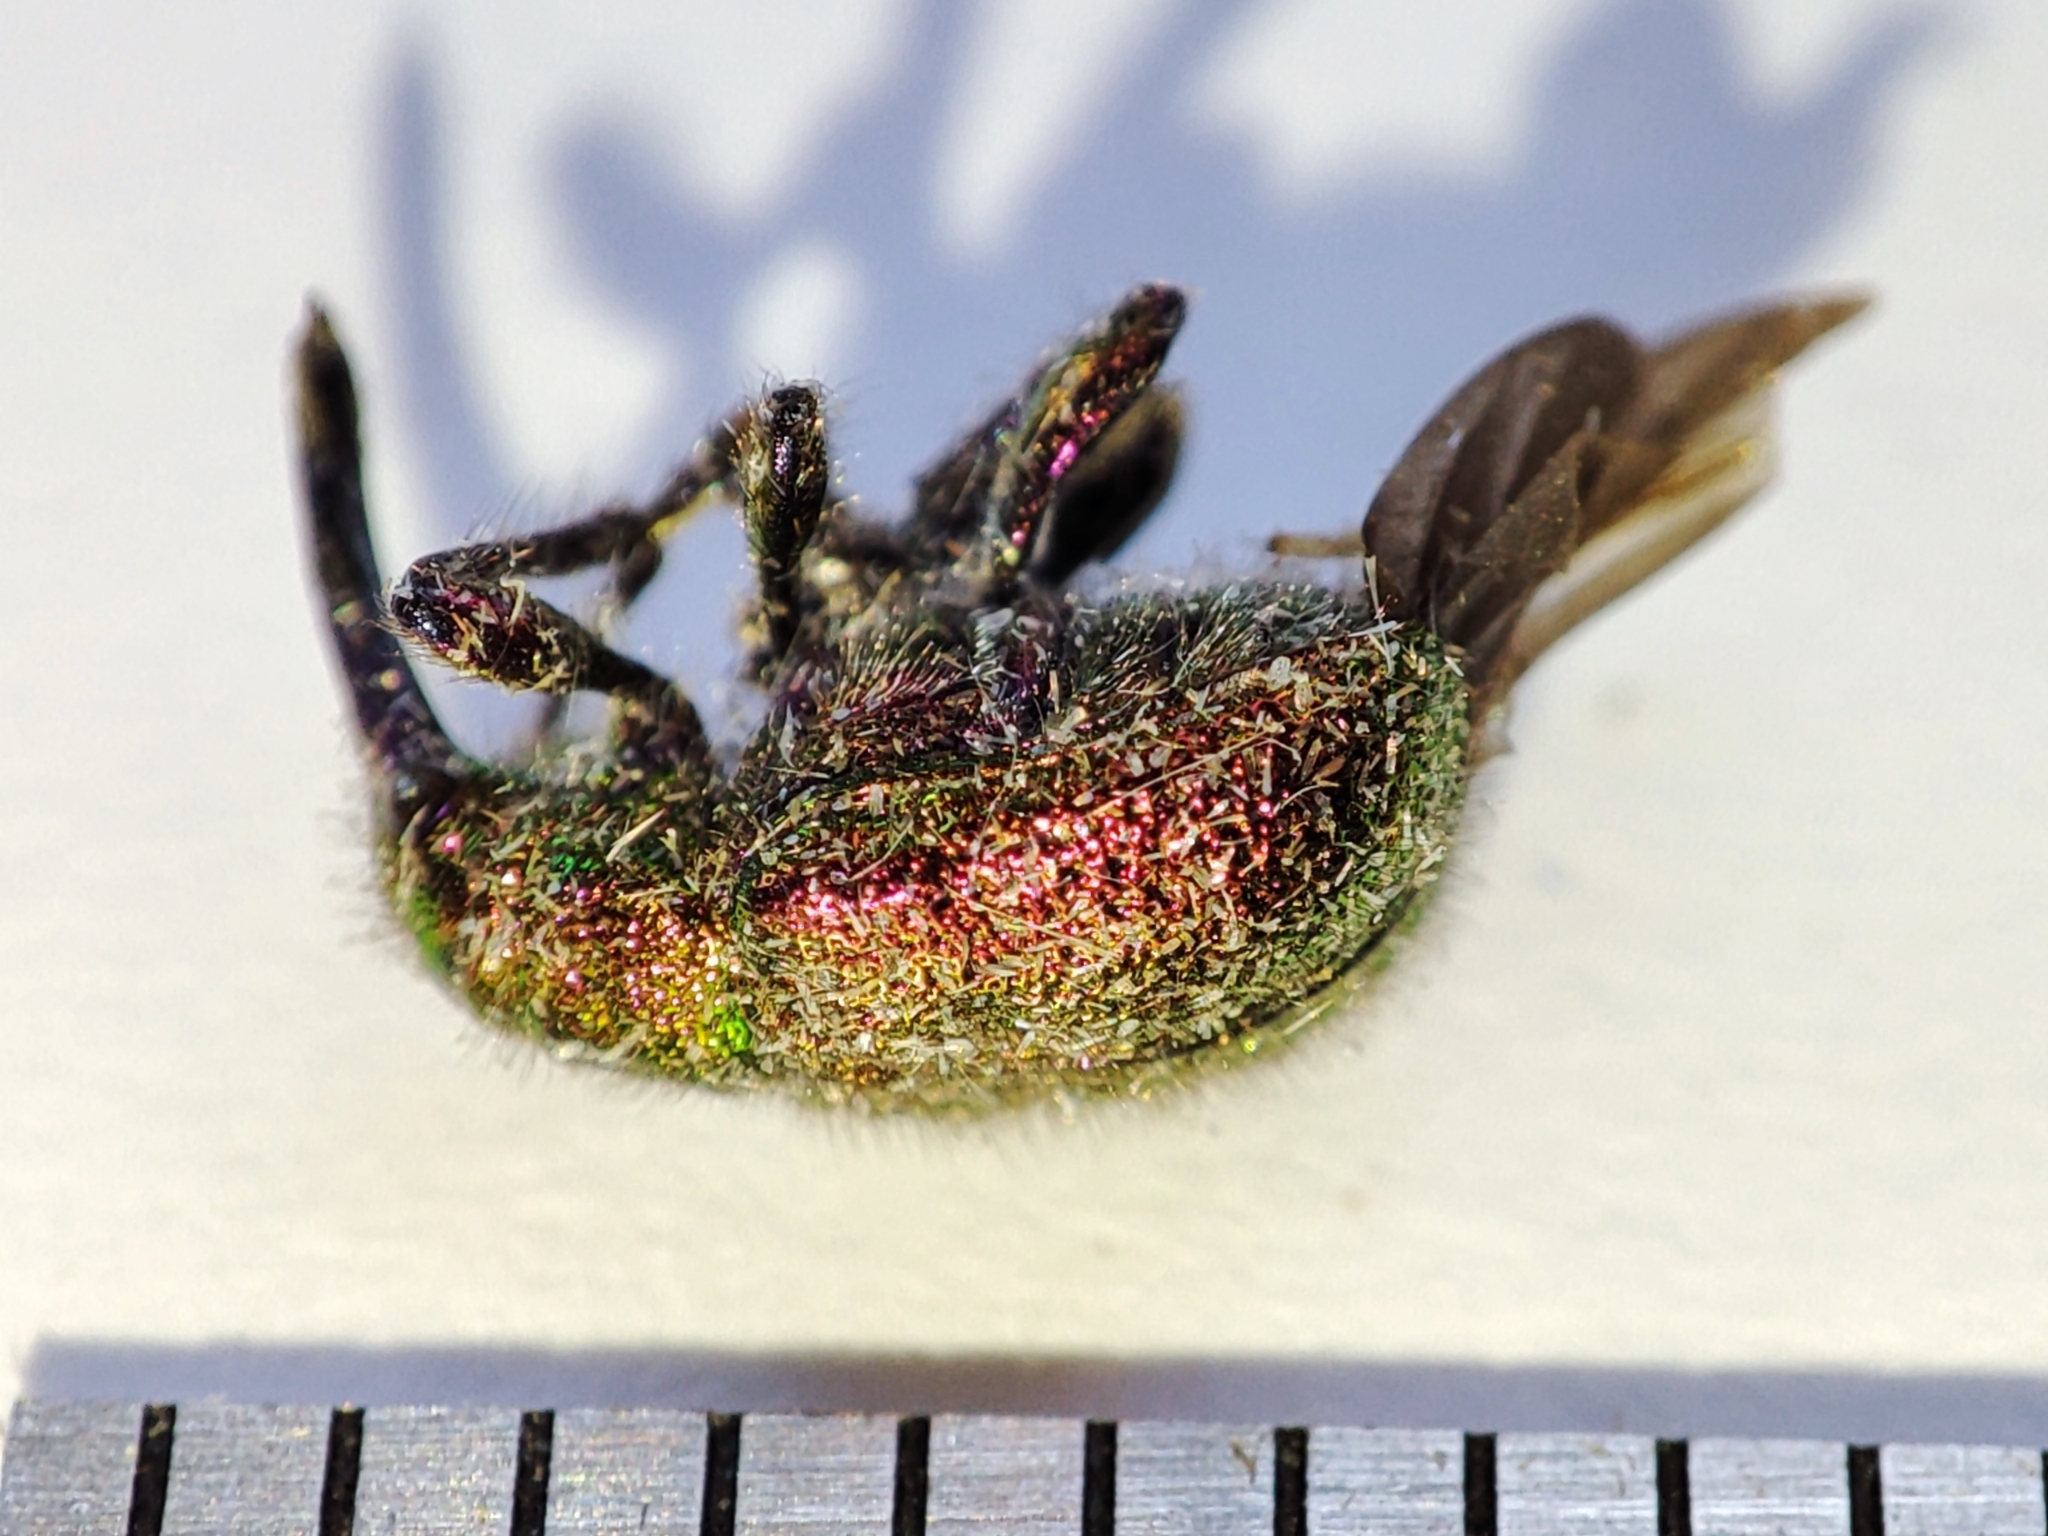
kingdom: Animalia
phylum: Arthropoda
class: Insecta
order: Coleoptera
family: Attelabidae
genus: Rhynchites
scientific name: Rhynchites bacchus
